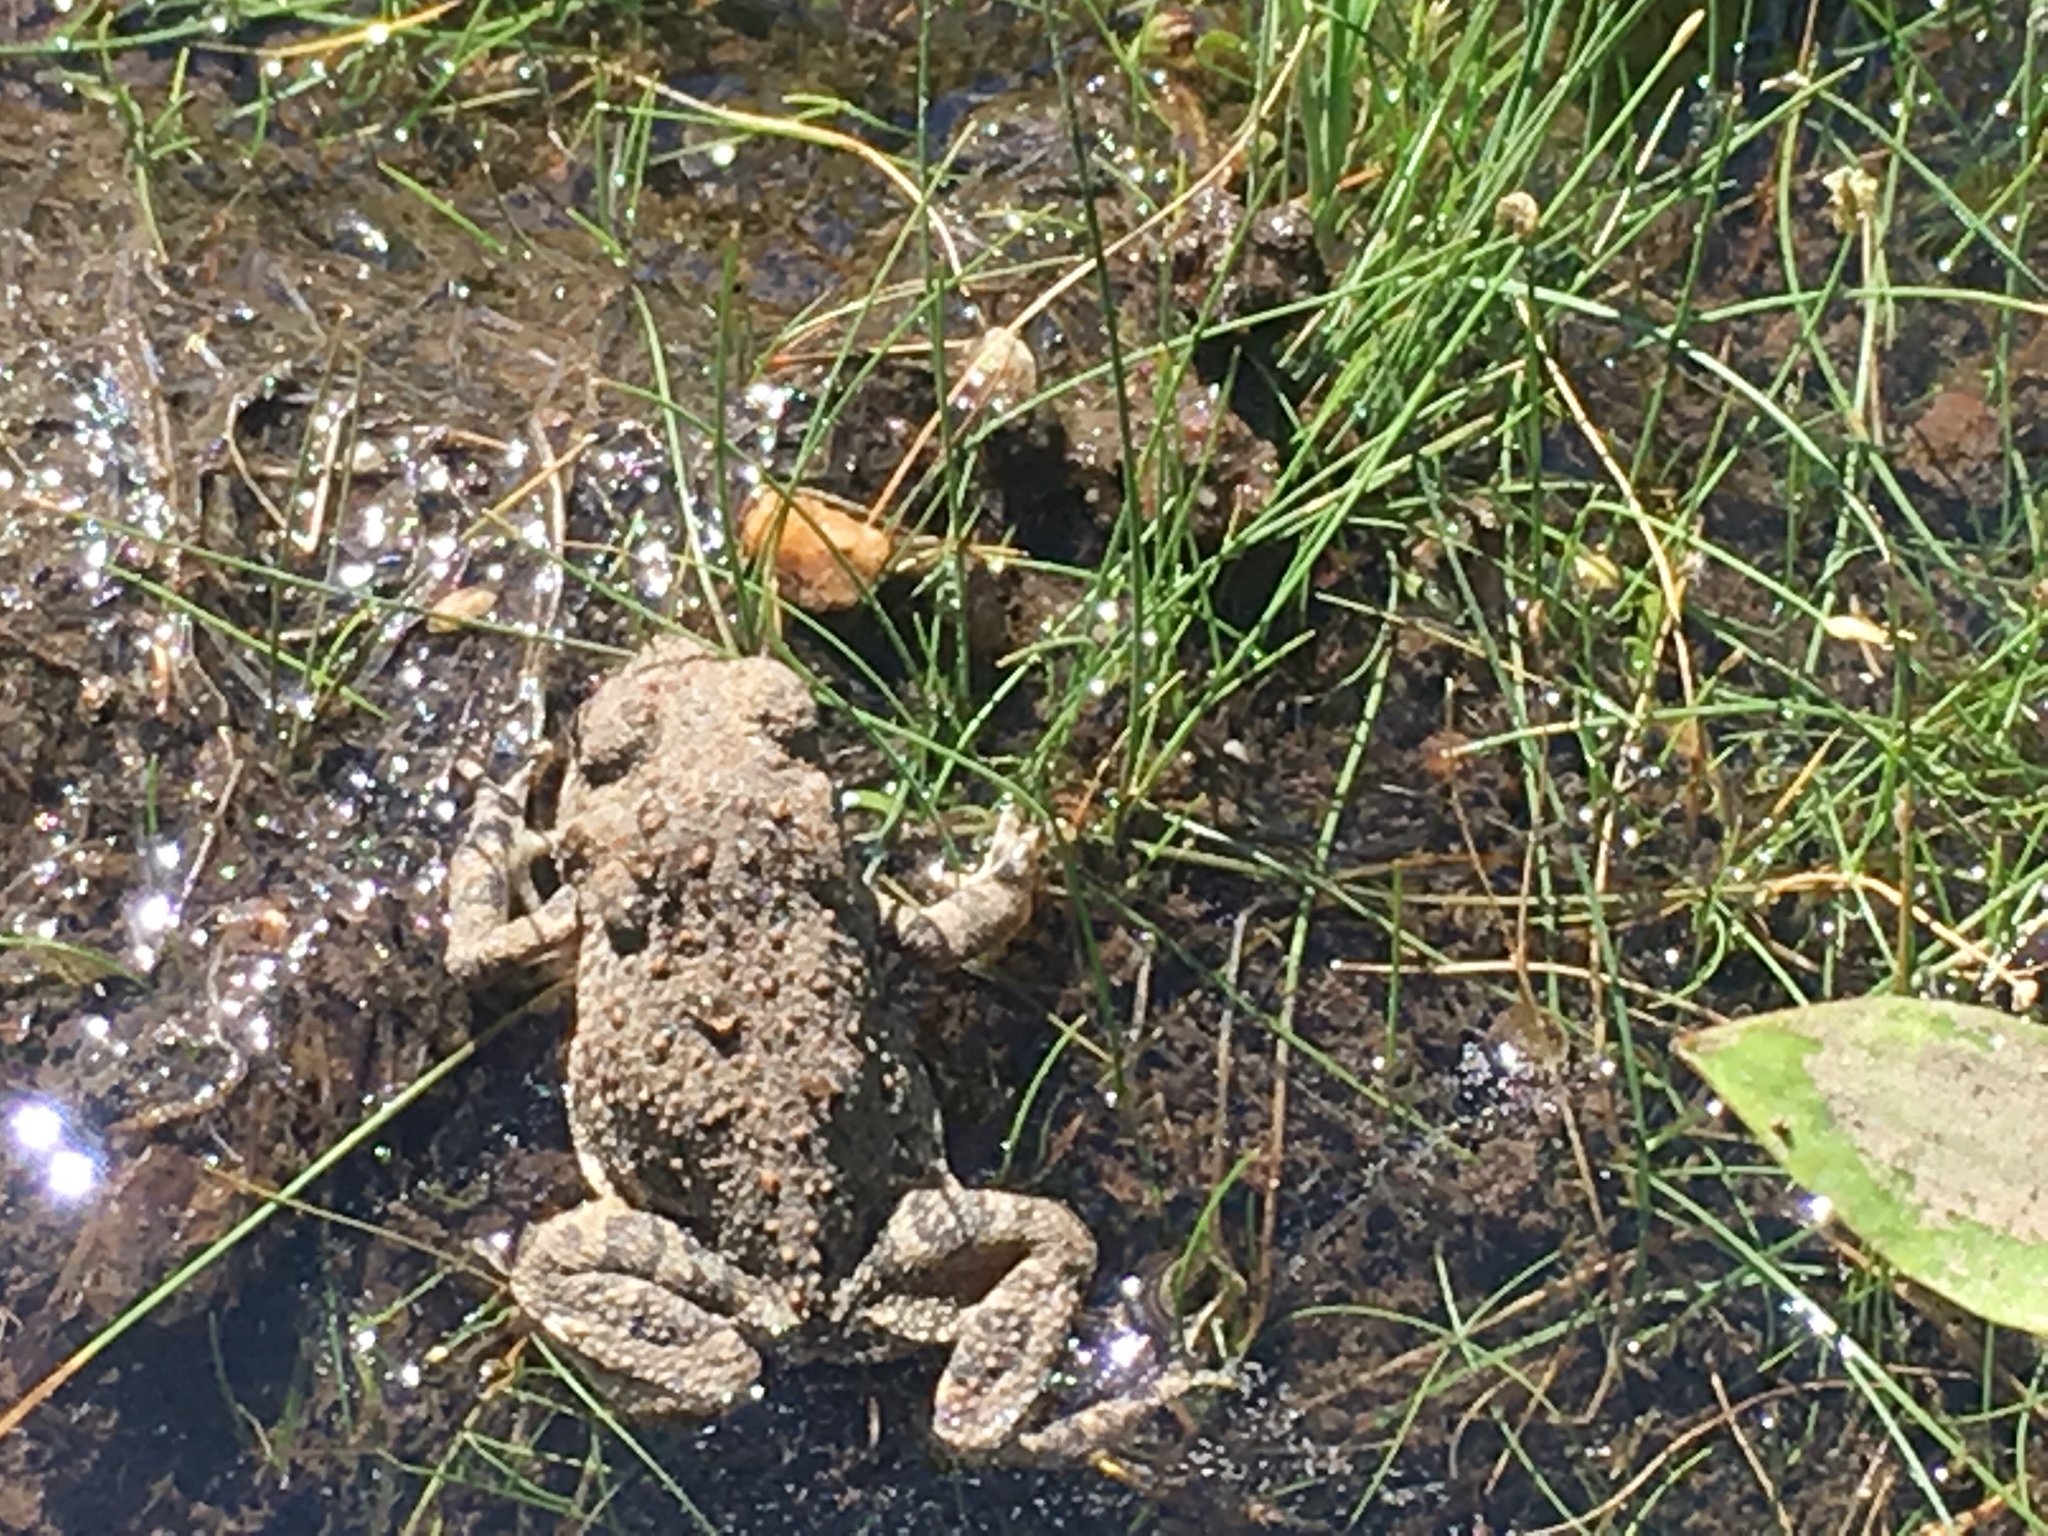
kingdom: Animalia
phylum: Chordata
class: Amphibia
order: Anura
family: Bufonidae
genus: Anaxyrus
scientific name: Anaxyrus woodhousii
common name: Woodhouse's toad
